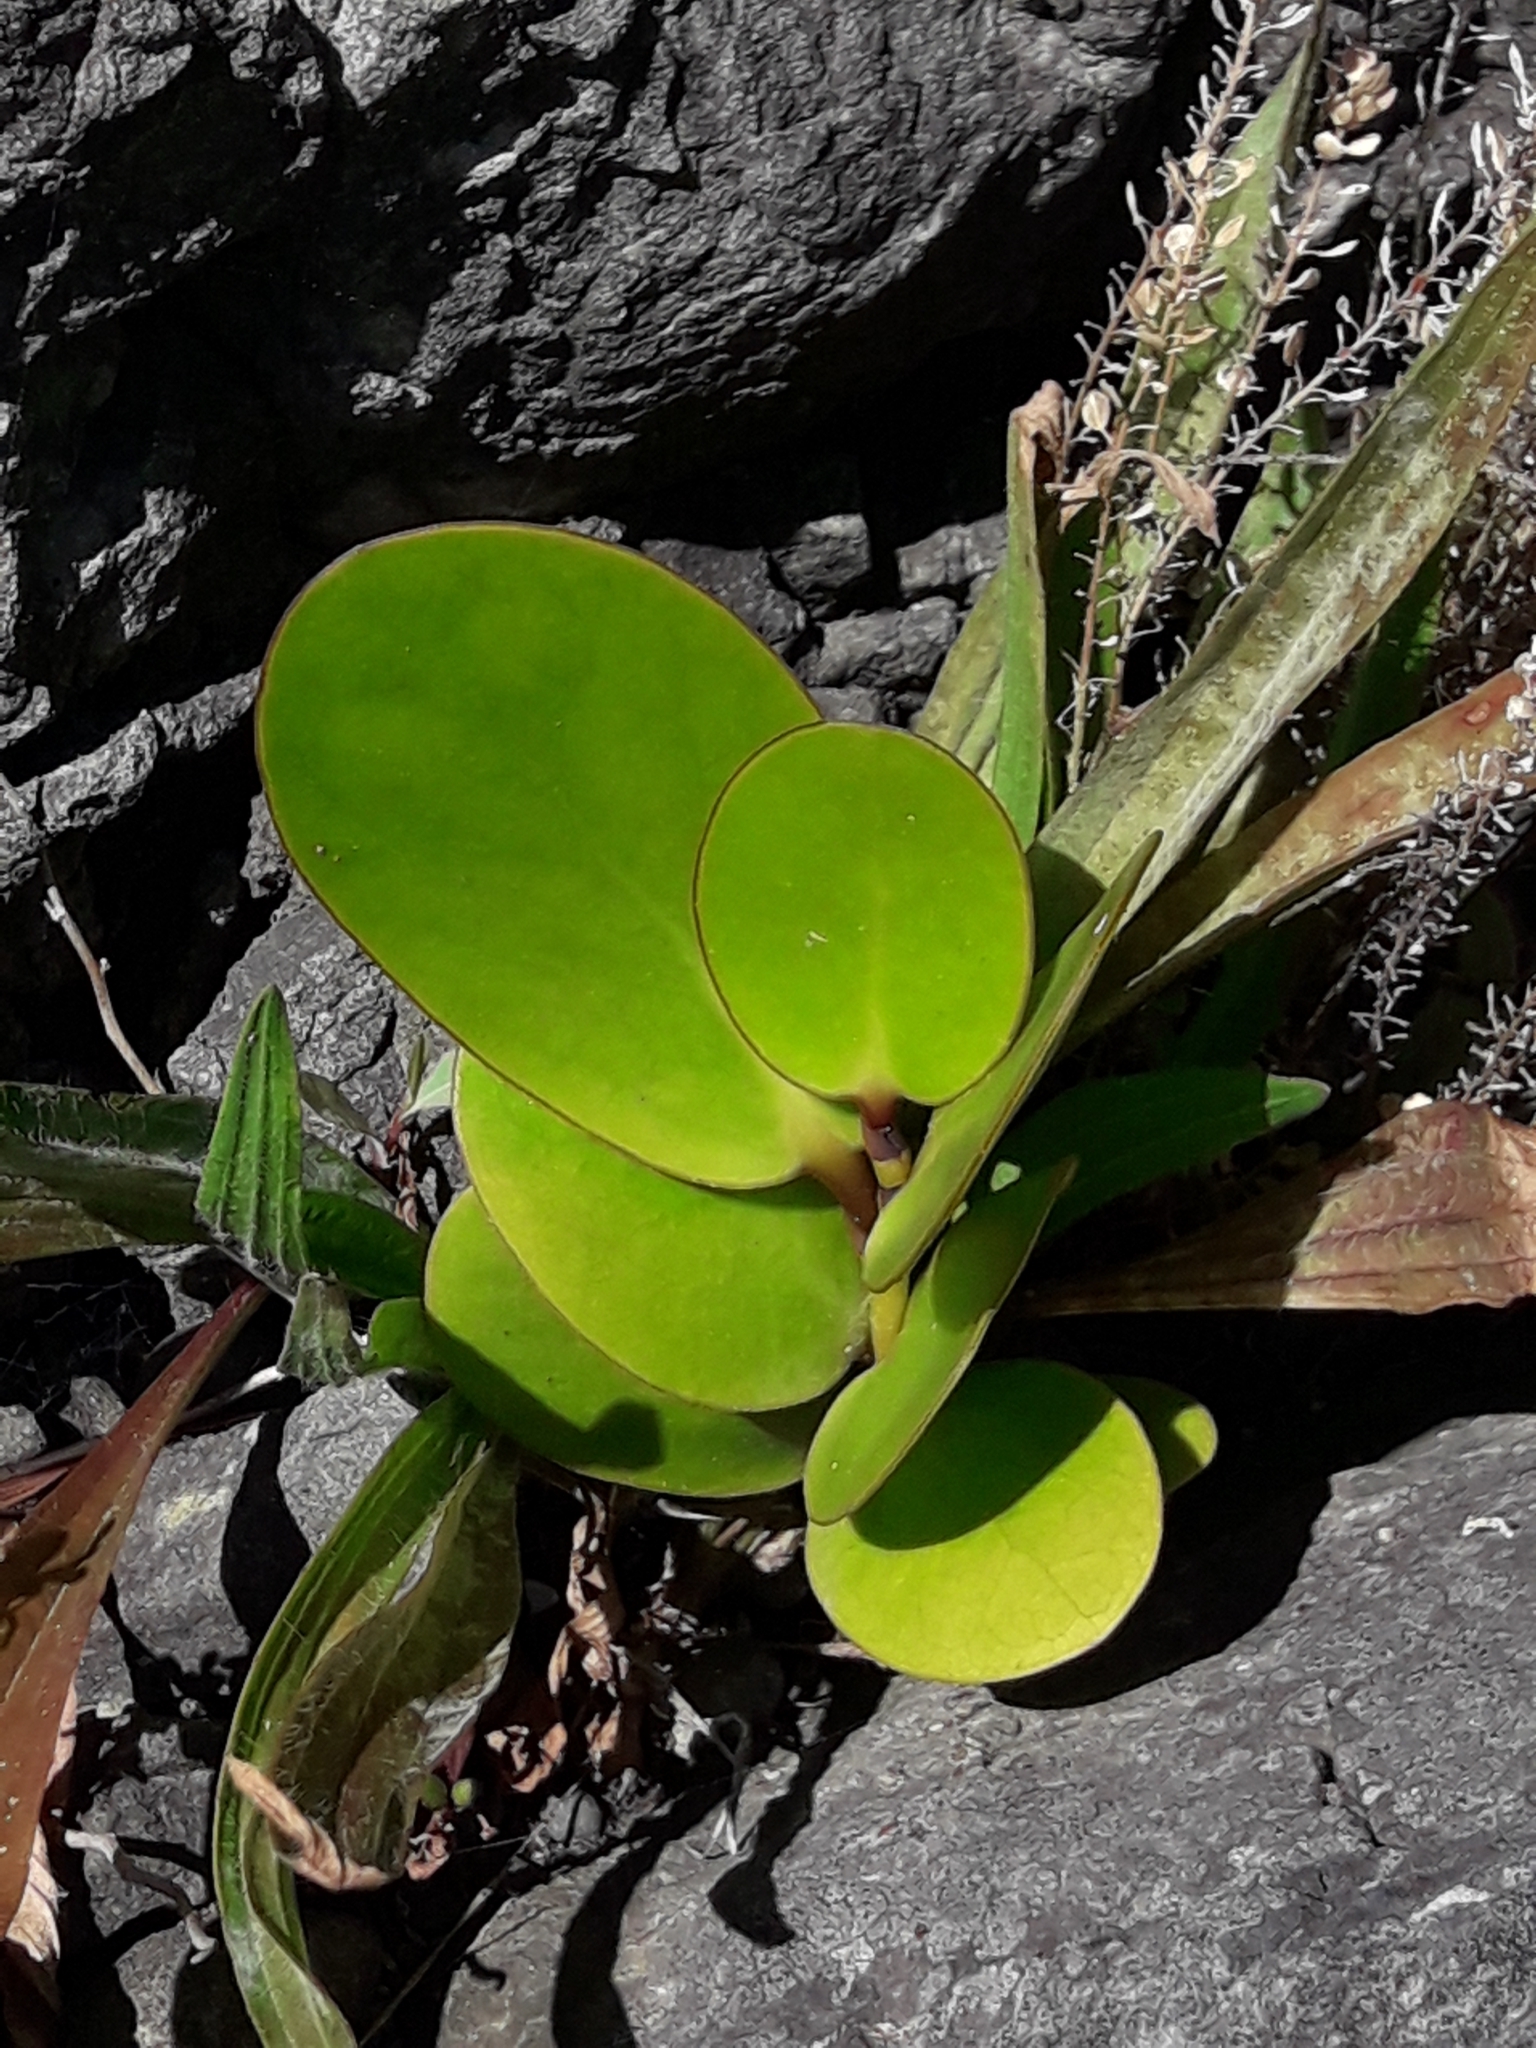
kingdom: Plantae
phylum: Tracheophyta
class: Magnoliopsida
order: Apiales
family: Griseliniaceae
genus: Griselinia
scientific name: Griselinia lucida
